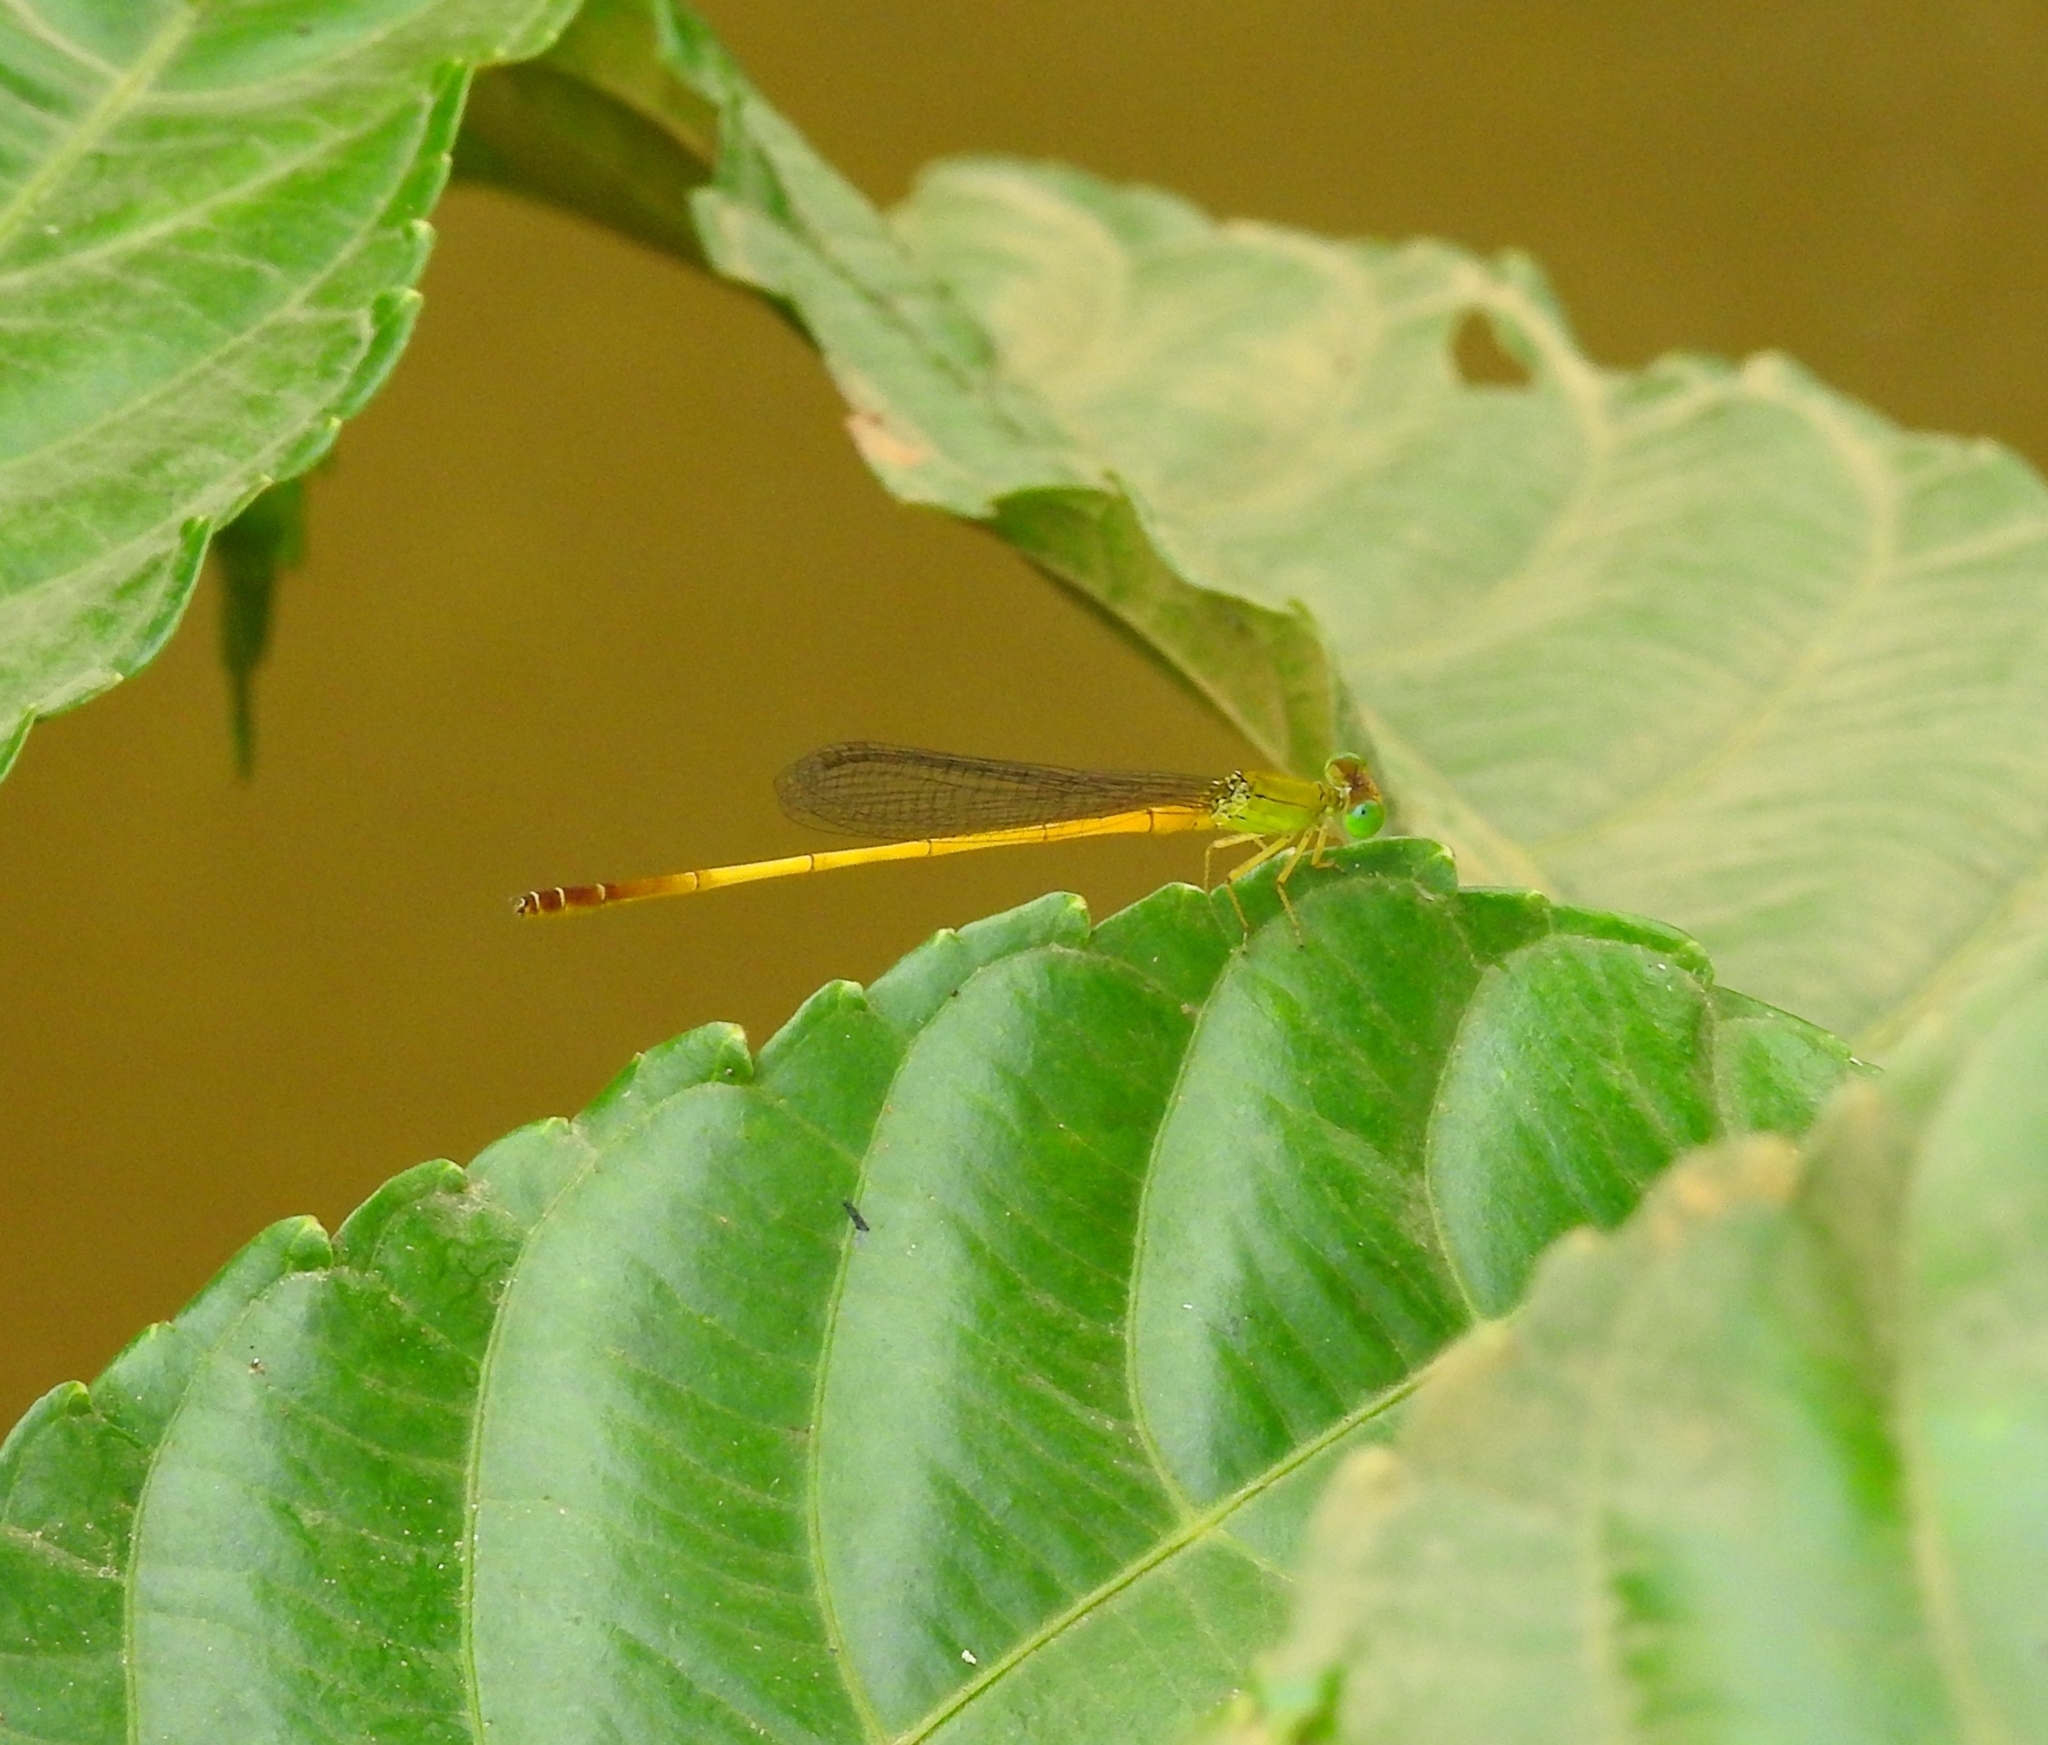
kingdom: Animalia
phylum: Arthropoda
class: Insecta
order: Odonata
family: Coenagrionidae
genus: Ceriagrion
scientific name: Ceriagrion chromothorax
